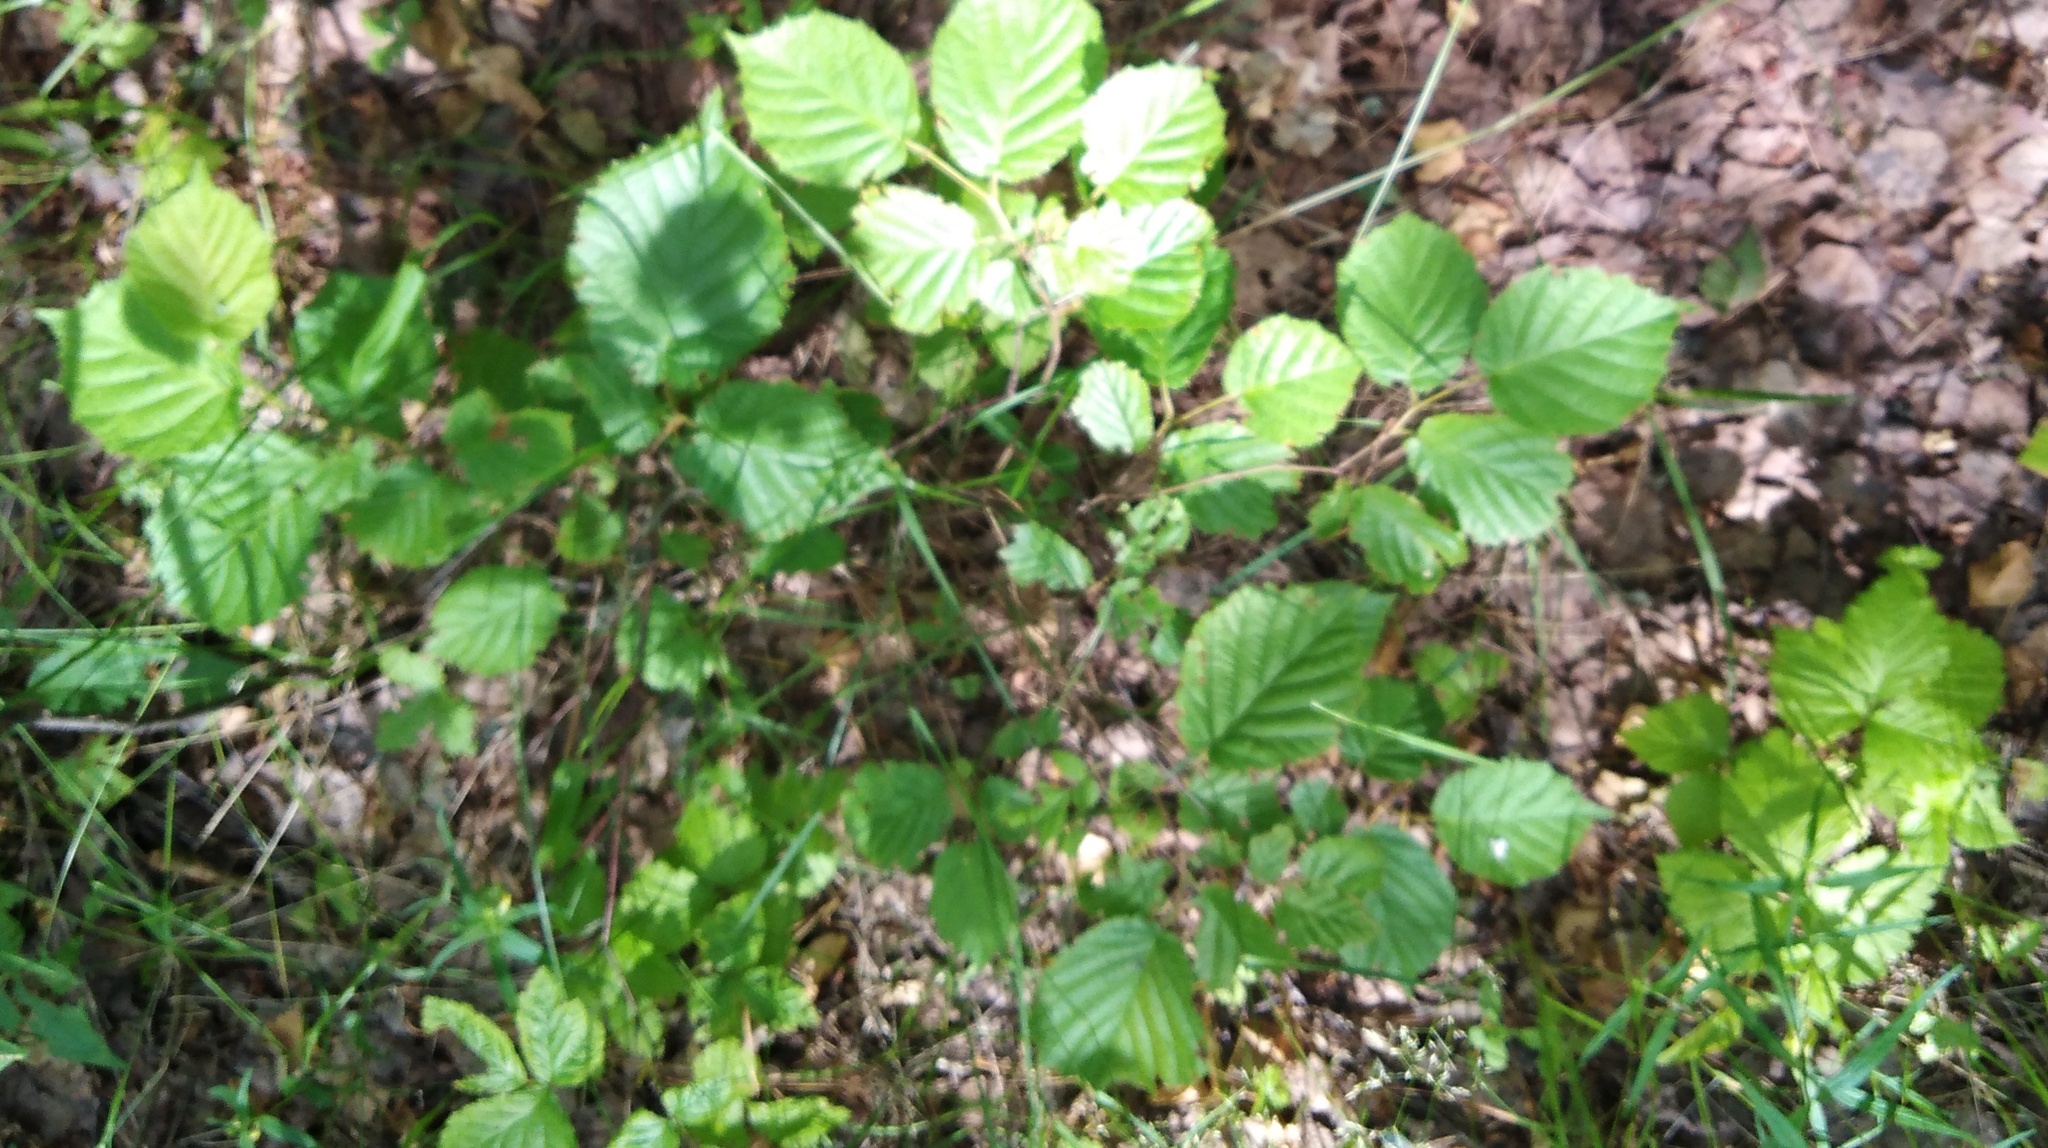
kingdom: Plantae
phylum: Tracheophyta
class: Magnoliopsida
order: Fagales
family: Betulaceae
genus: Corylus
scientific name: Corylus avellana
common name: European hazel
